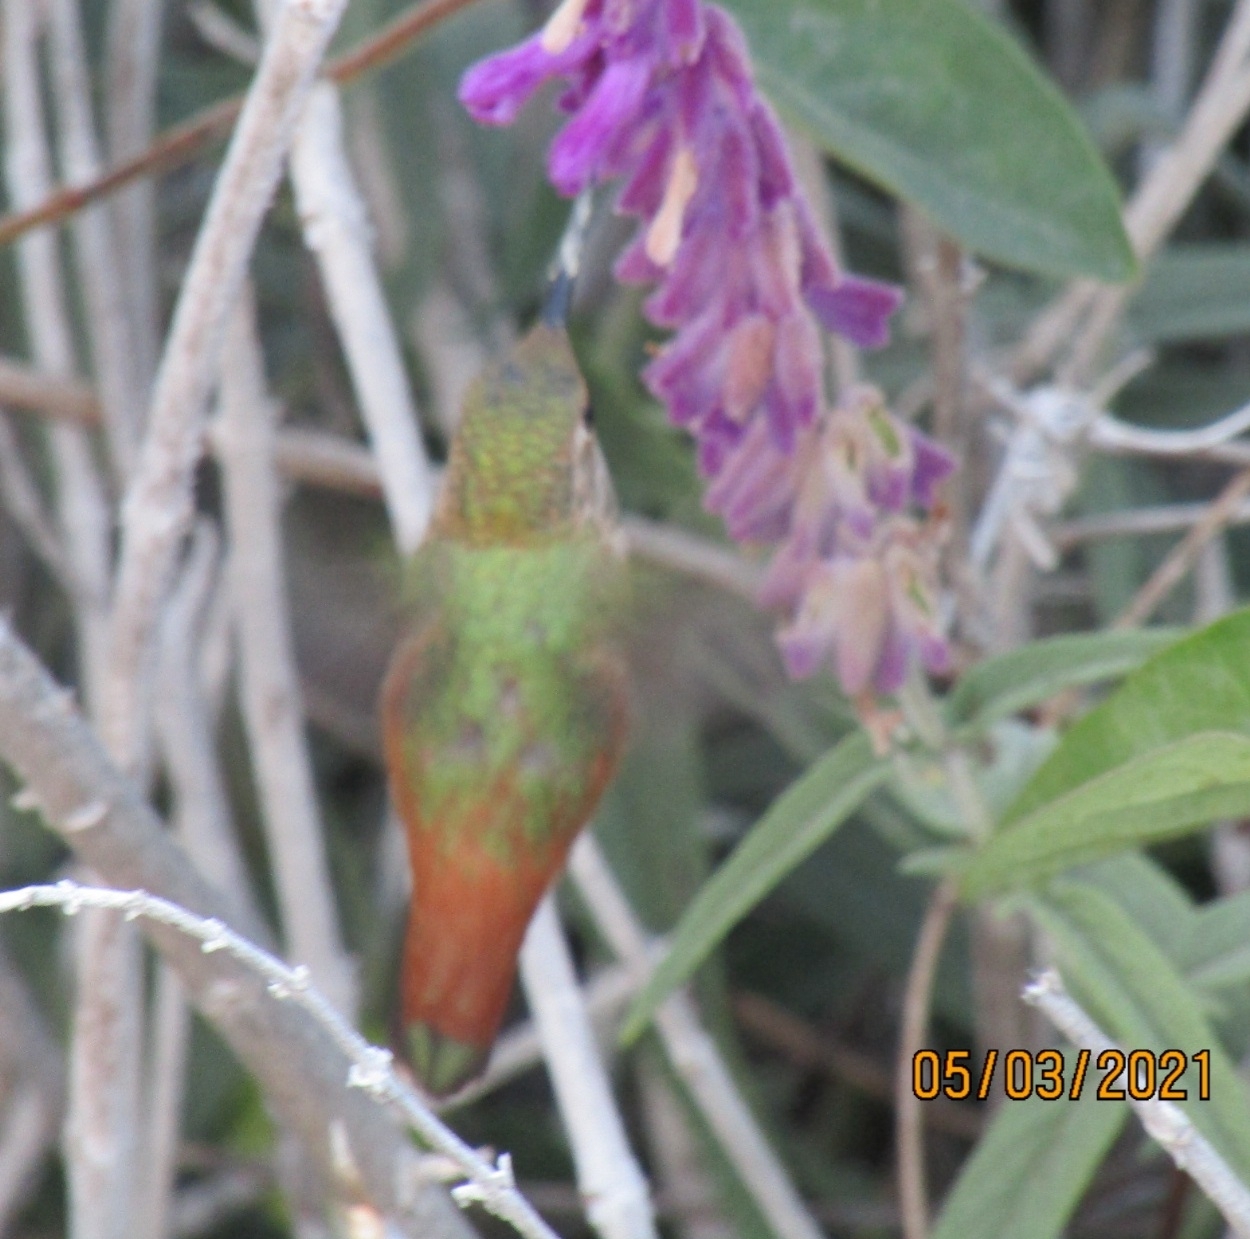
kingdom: Animalia
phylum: Chordata
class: Aves
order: Apodiformes
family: Trochilidae
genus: Selasphorus
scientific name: Selasphorus
